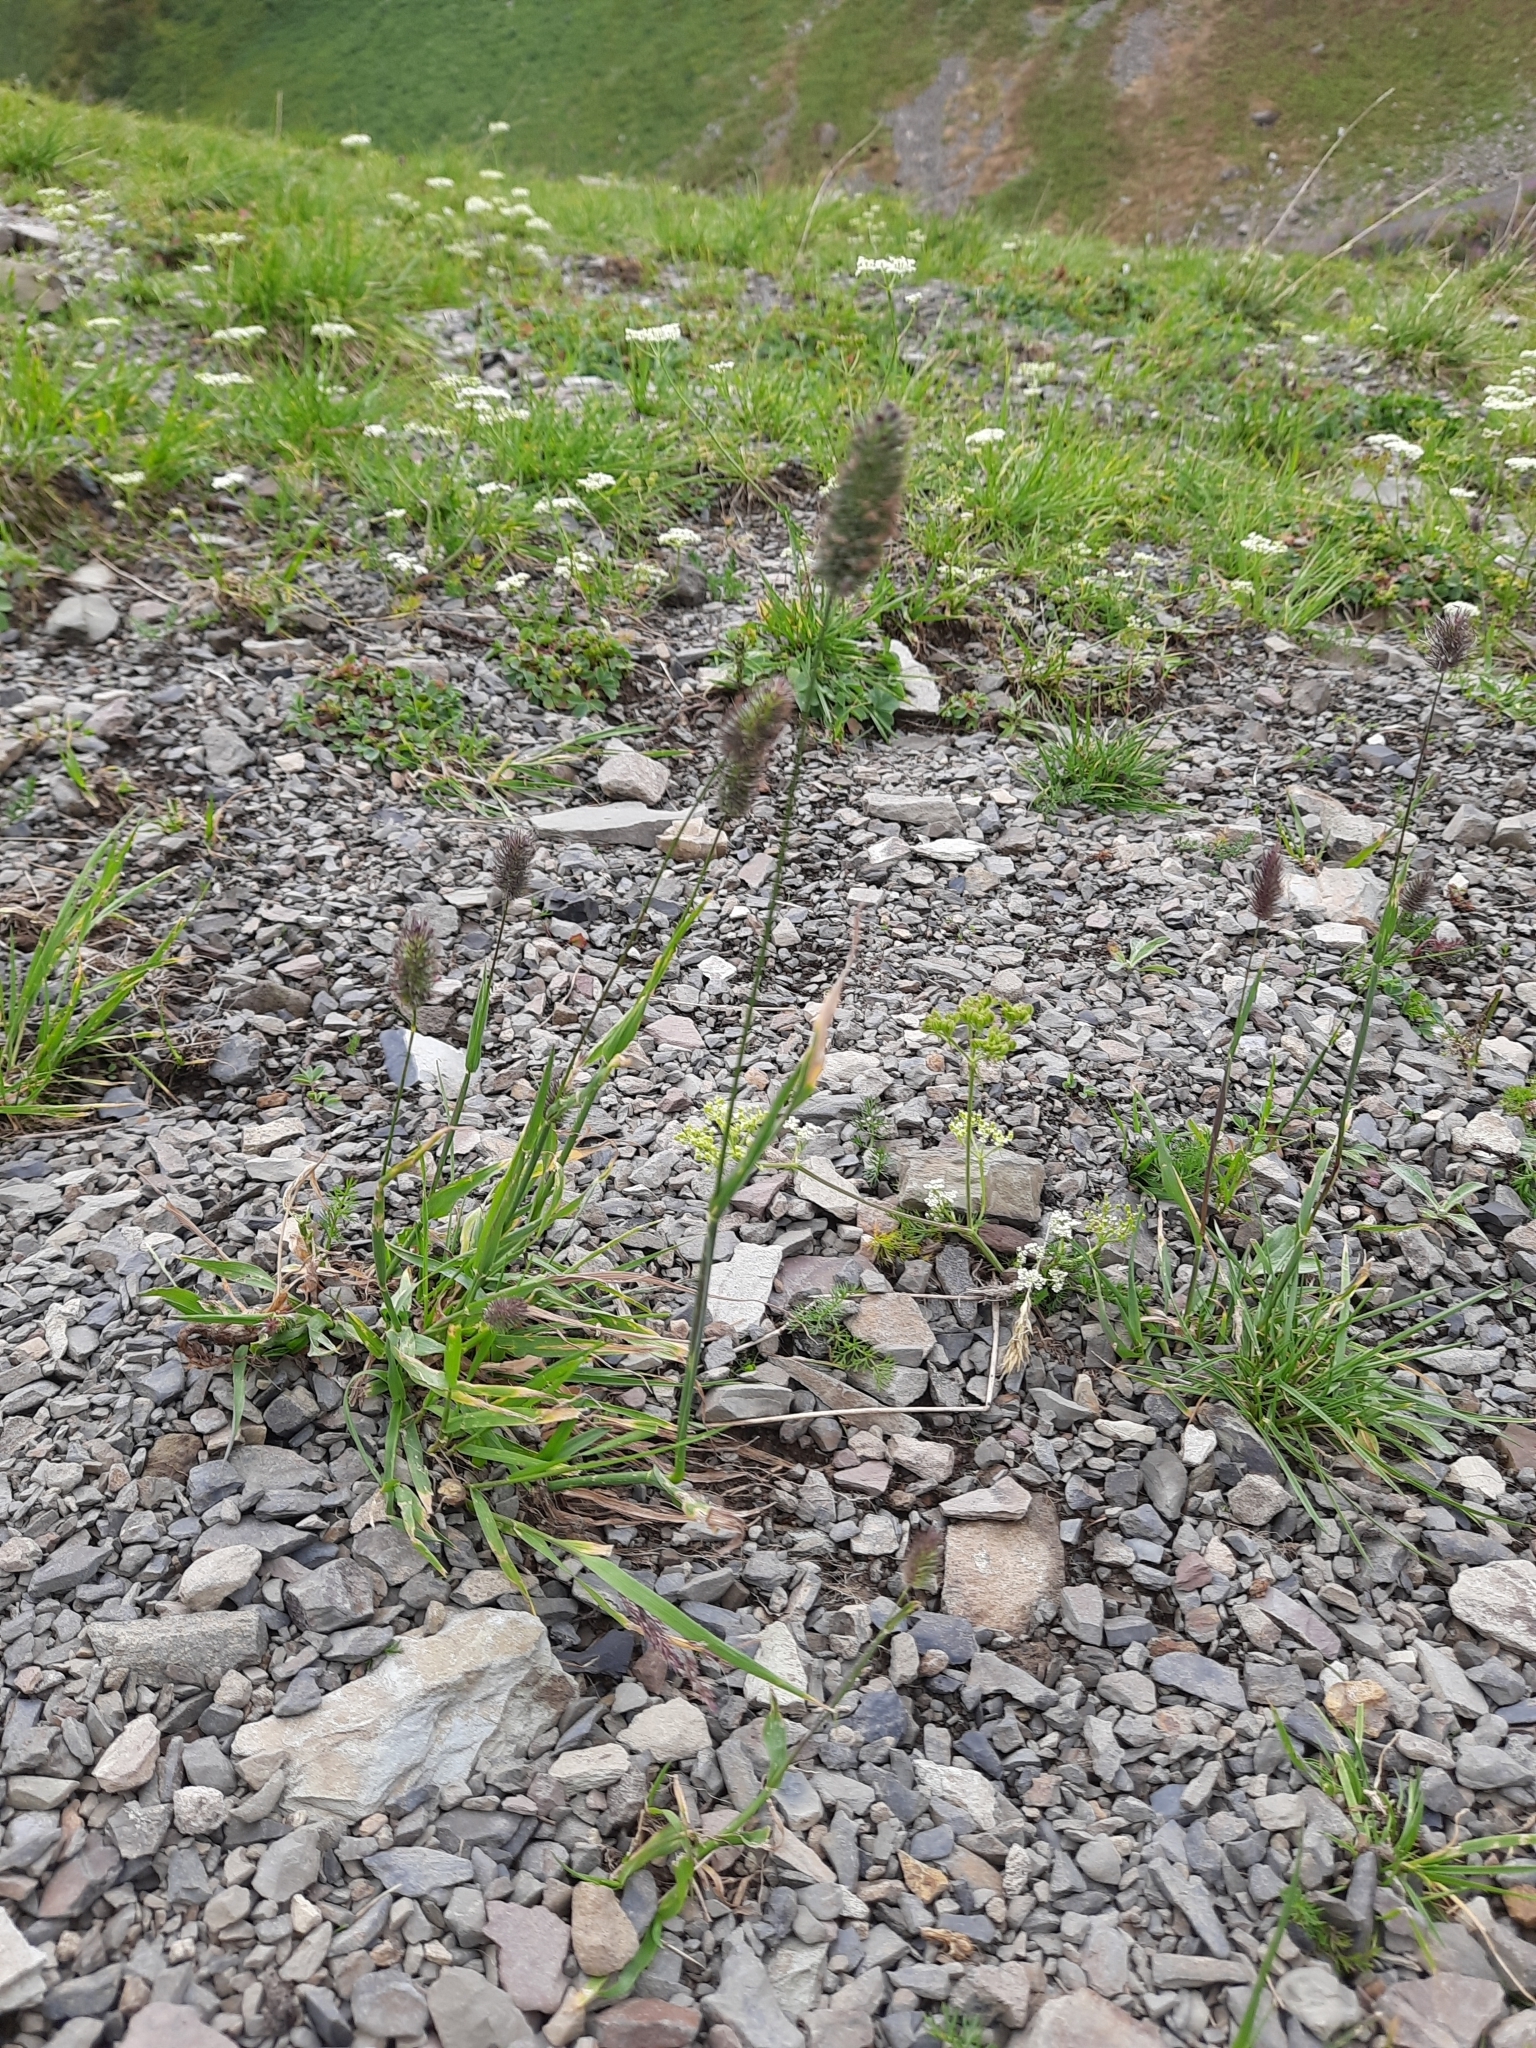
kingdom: Plantae
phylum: Tracheophyta
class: Liliopsida
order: Poales
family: Poaceae
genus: Phleum
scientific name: Phleum alpinum
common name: Alpine cat's-tail
